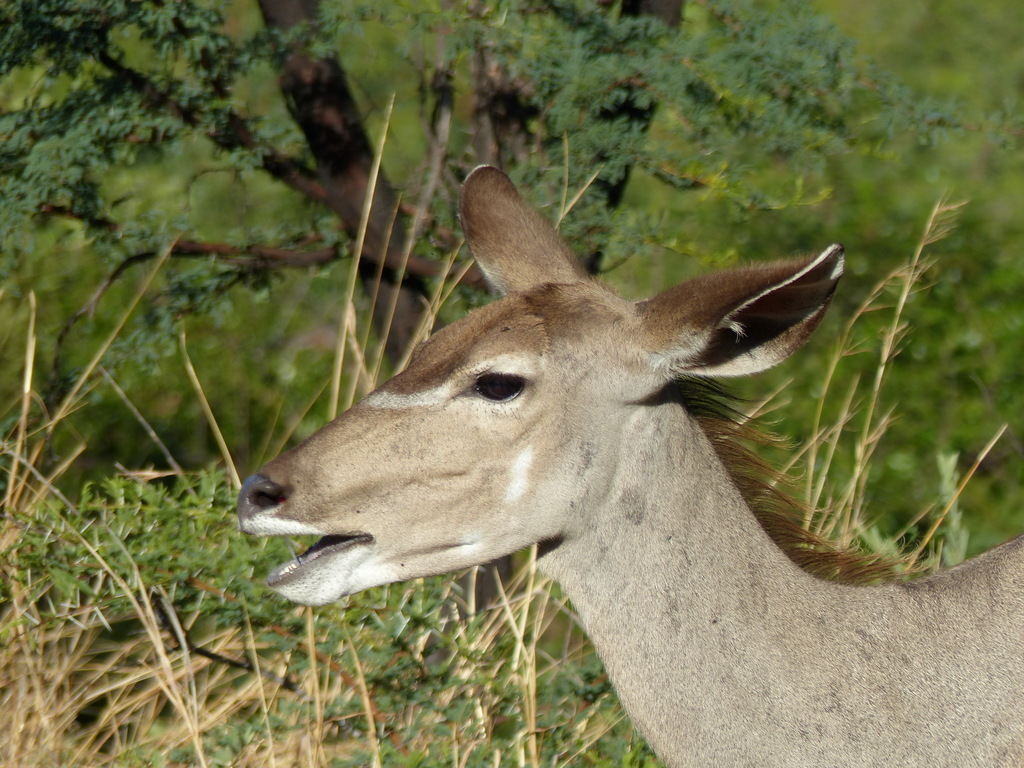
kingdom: Animalia
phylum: Chordata
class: Mammalia
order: Artiodactyla
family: Bovidae
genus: Tragelaphus
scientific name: Tragelaphus strepsiceros
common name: Greater kudu
